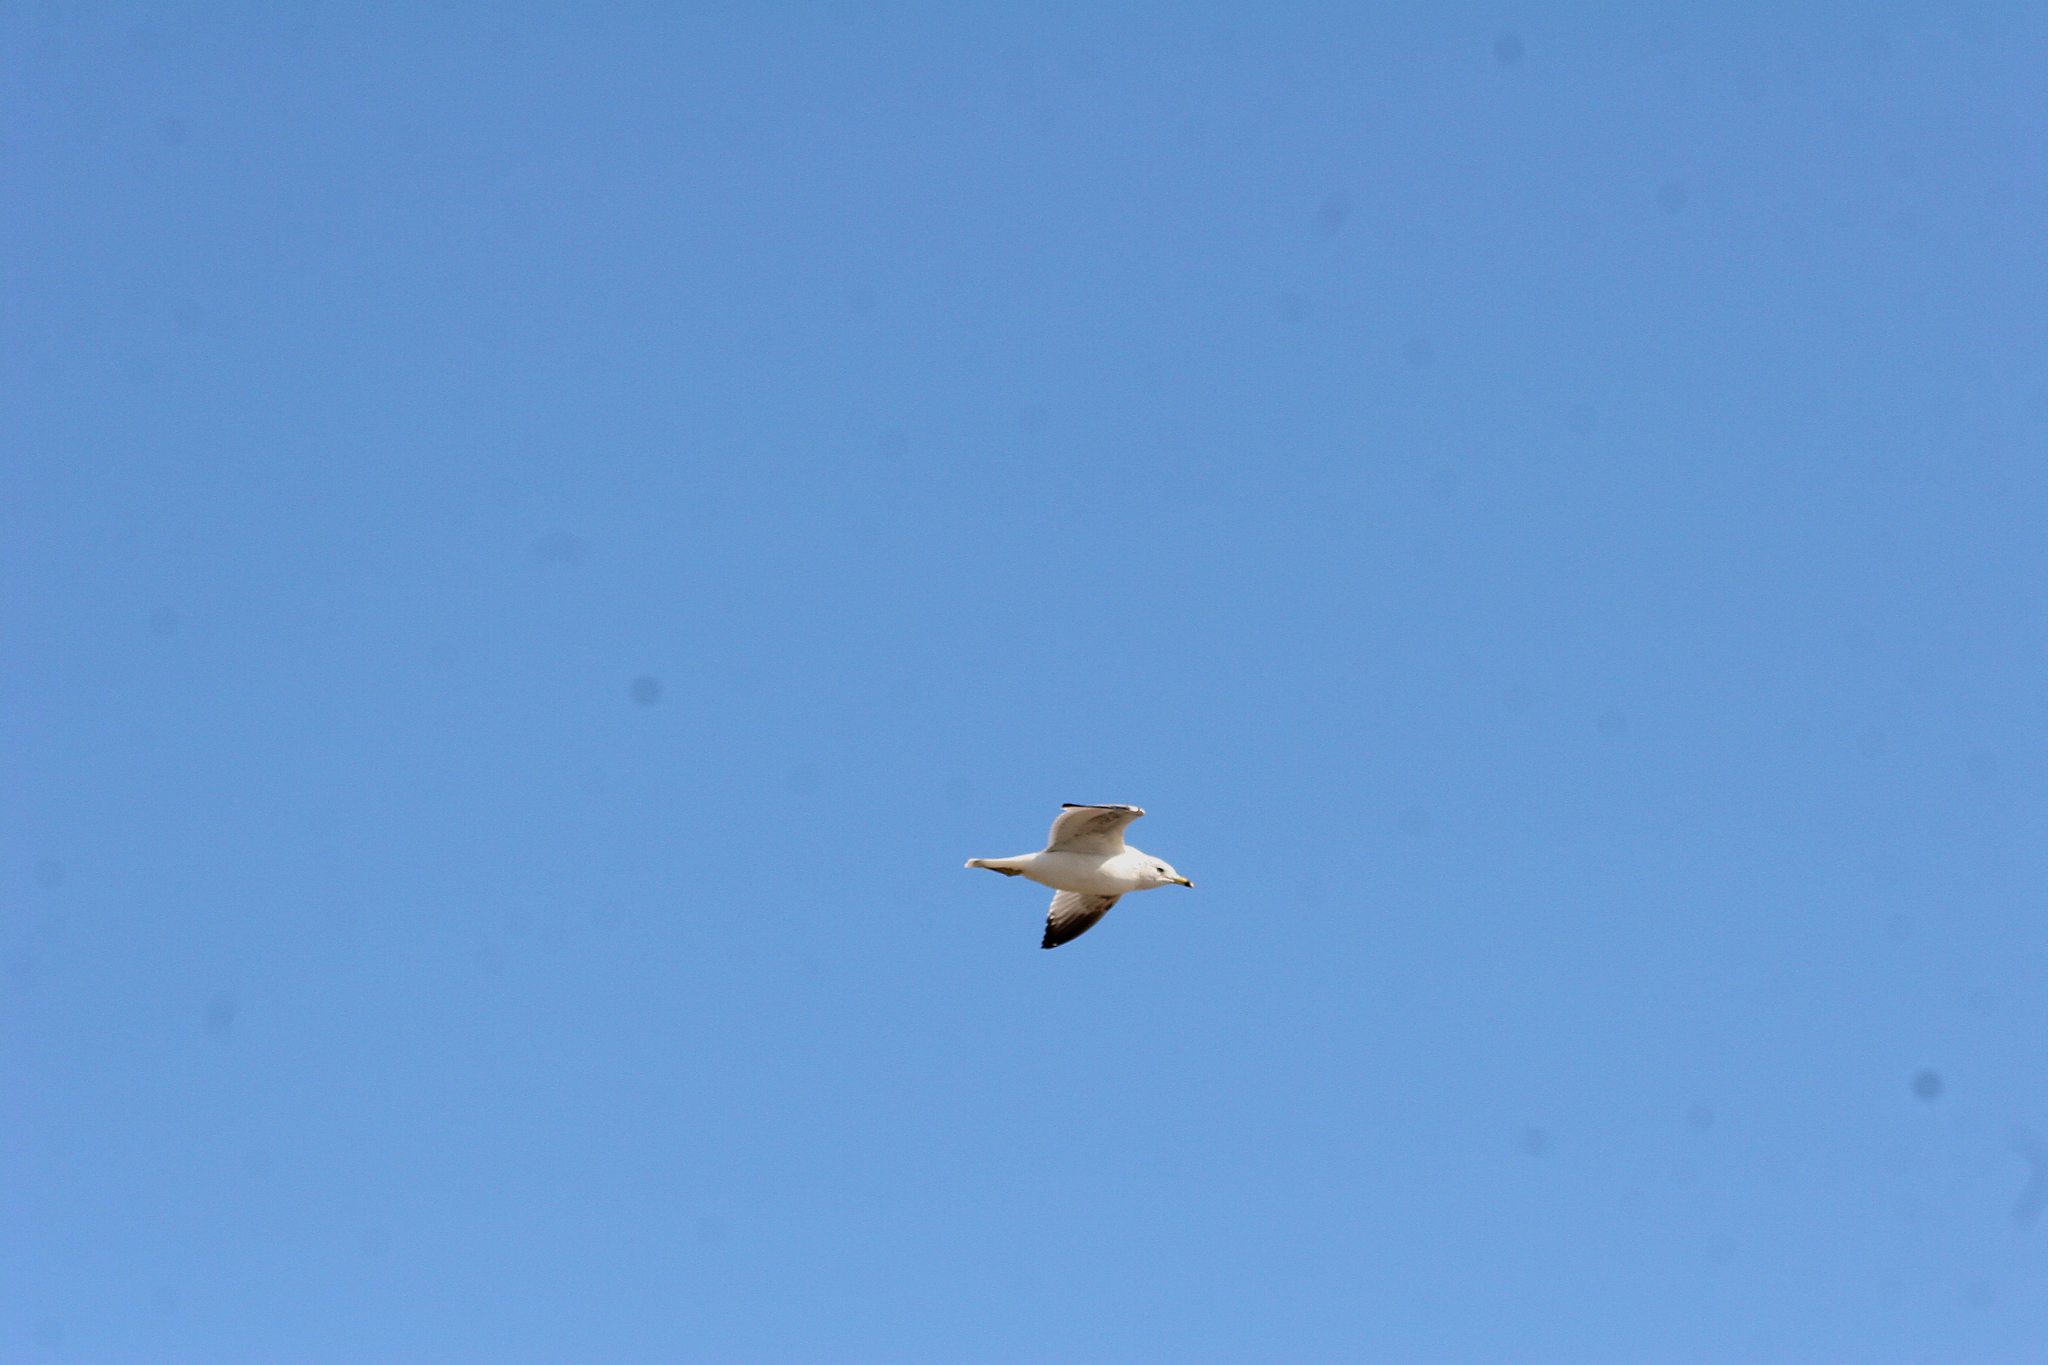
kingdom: Animalia
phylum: Chordata
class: Aves
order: Charadriiformes
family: Laridae
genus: Larus
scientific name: Larus delawarensis
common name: Ring-billed gull
